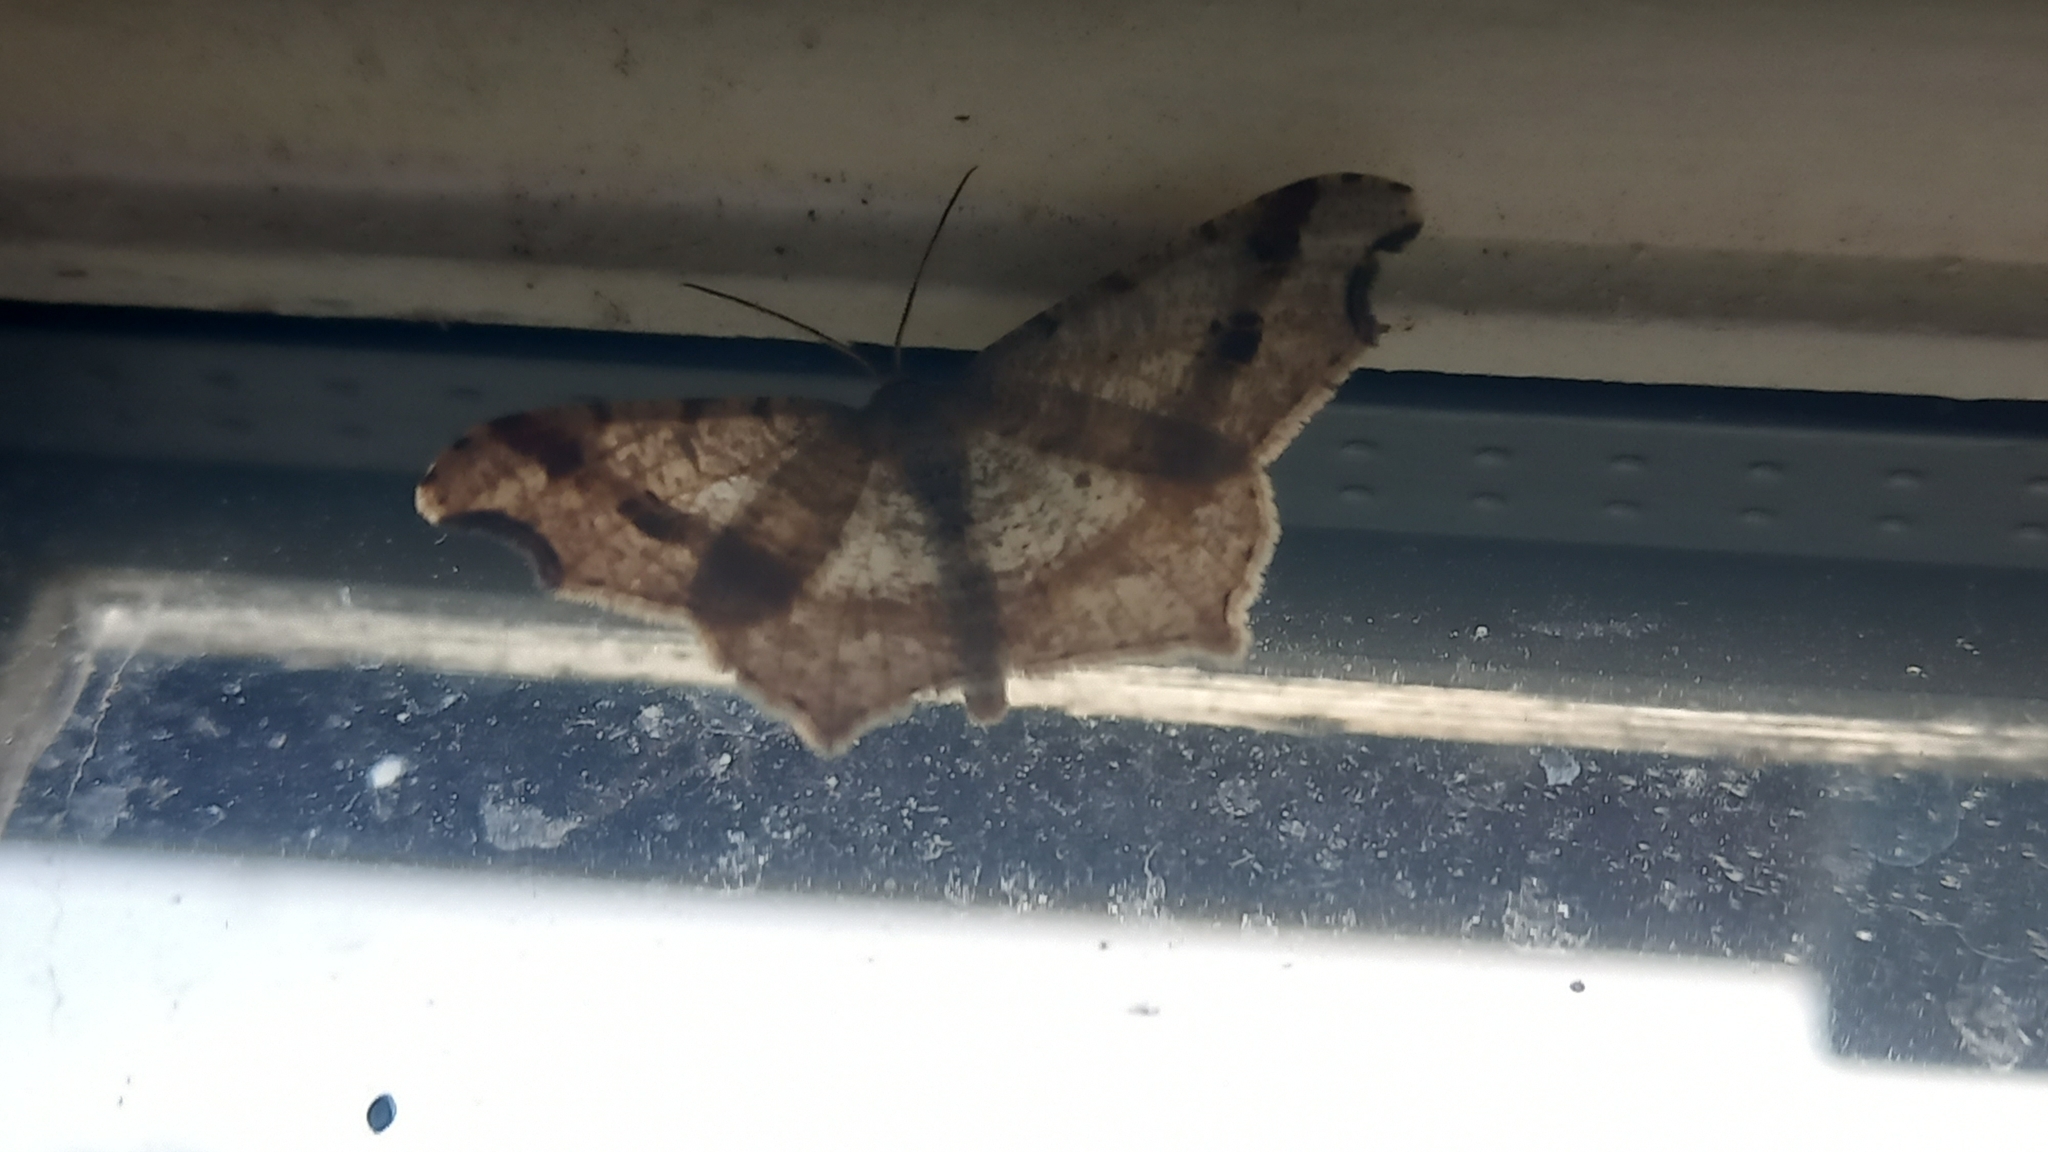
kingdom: Animalia
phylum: Arthropoda
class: Insecta
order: Lepidoptera
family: Geometridae
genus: Macaria
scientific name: Macaria alternata
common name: Sharp-angled peacock
